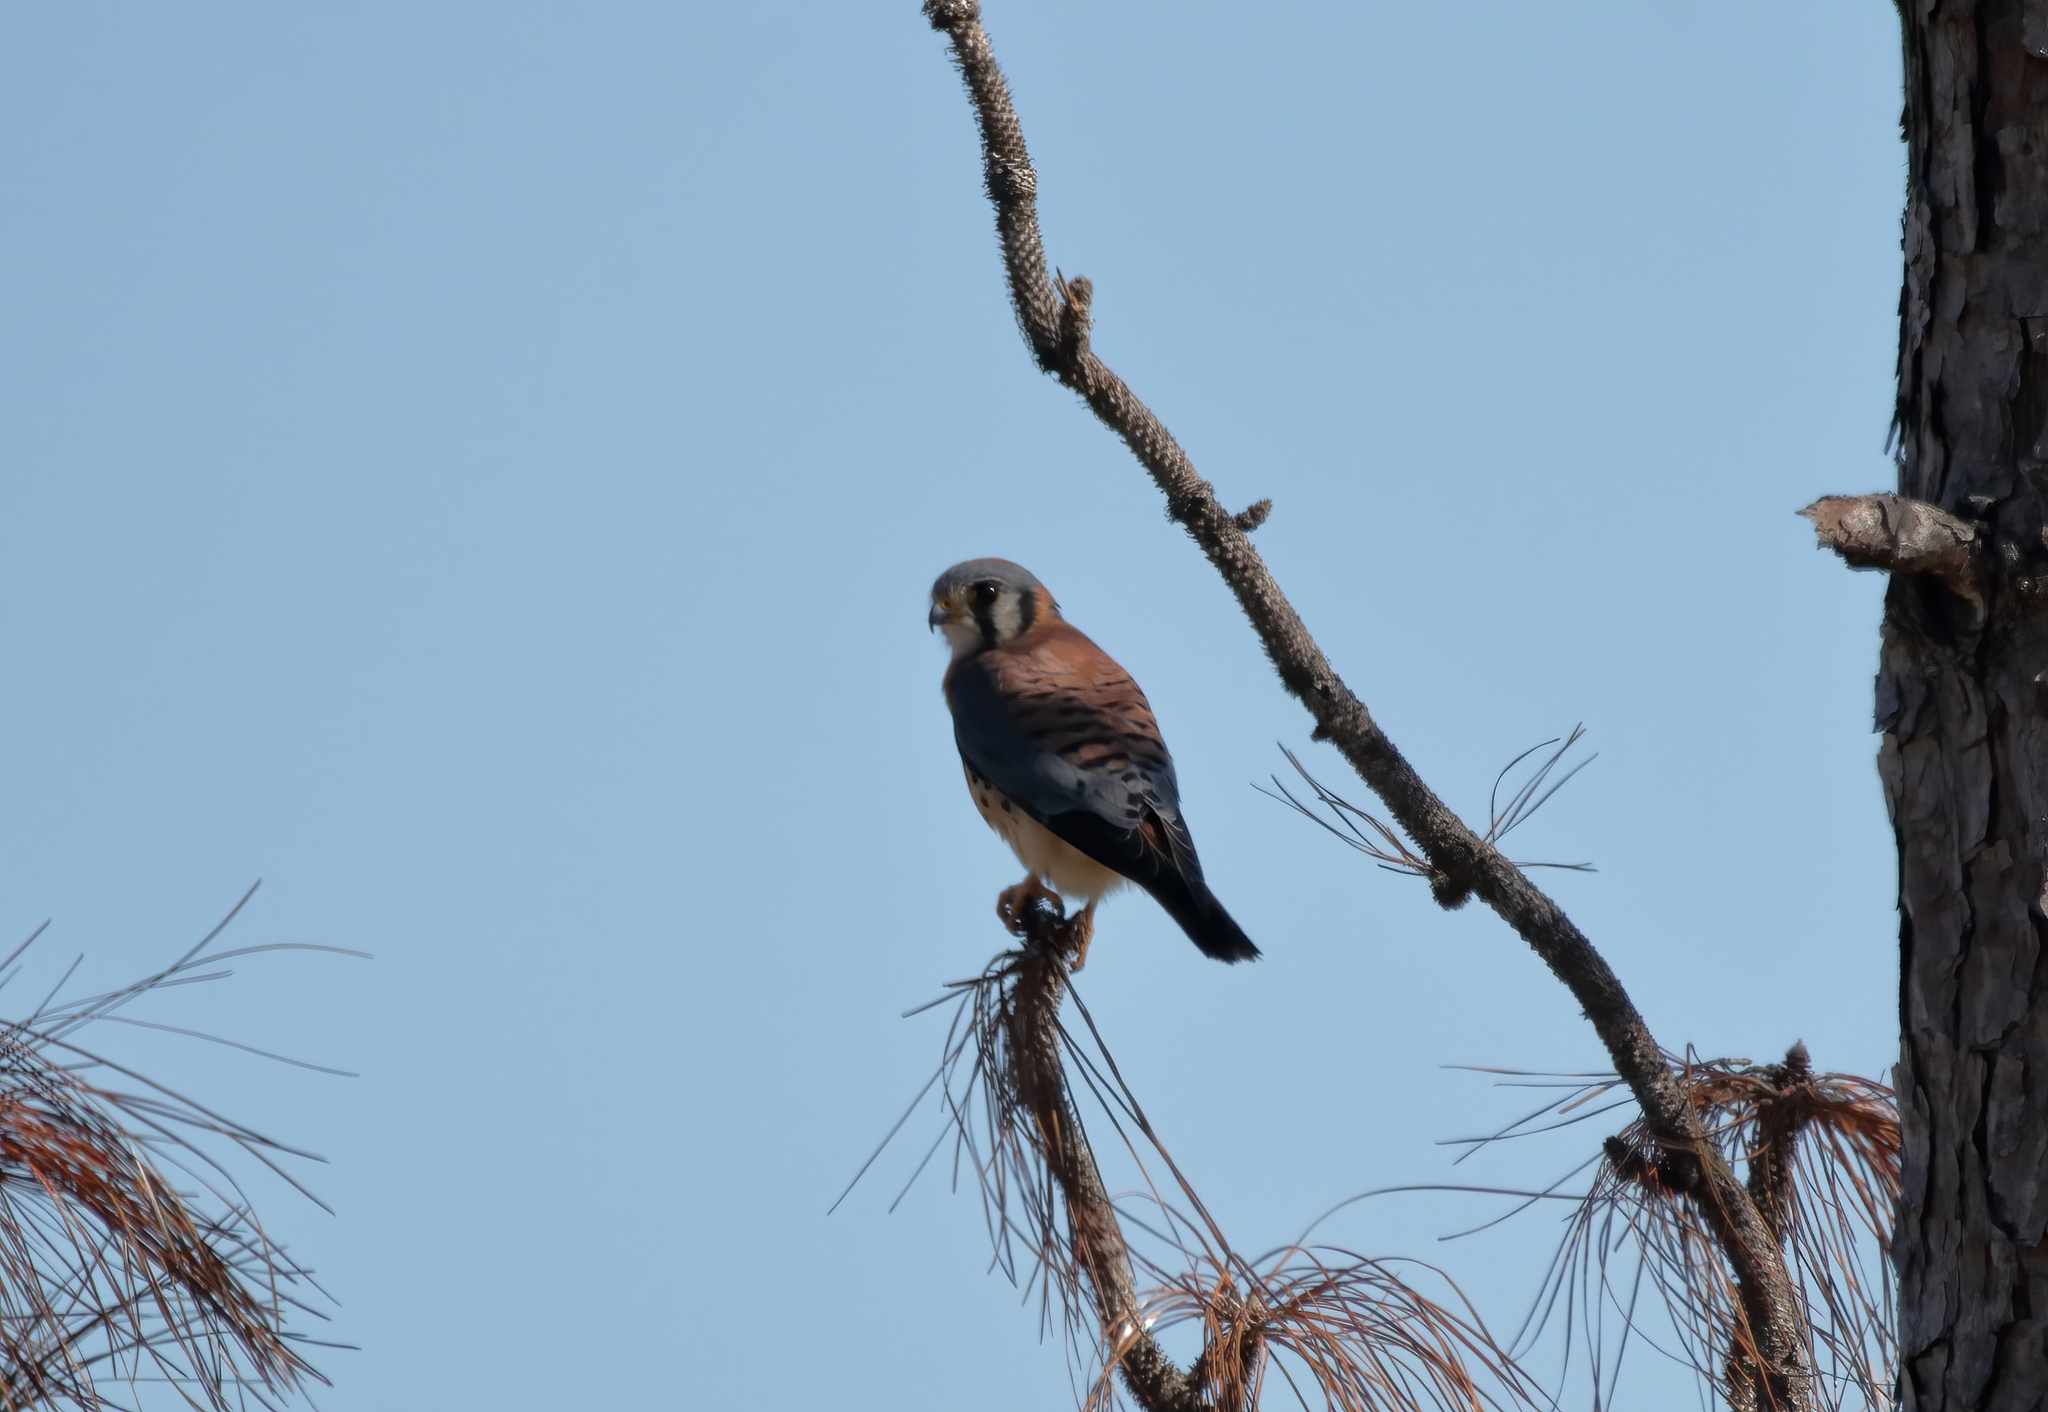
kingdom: Animalia
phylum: Chordata
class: Aves
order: Falconiformes
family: Falconidae
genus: Falco
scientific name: Falco sparverius
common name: American kestrel
